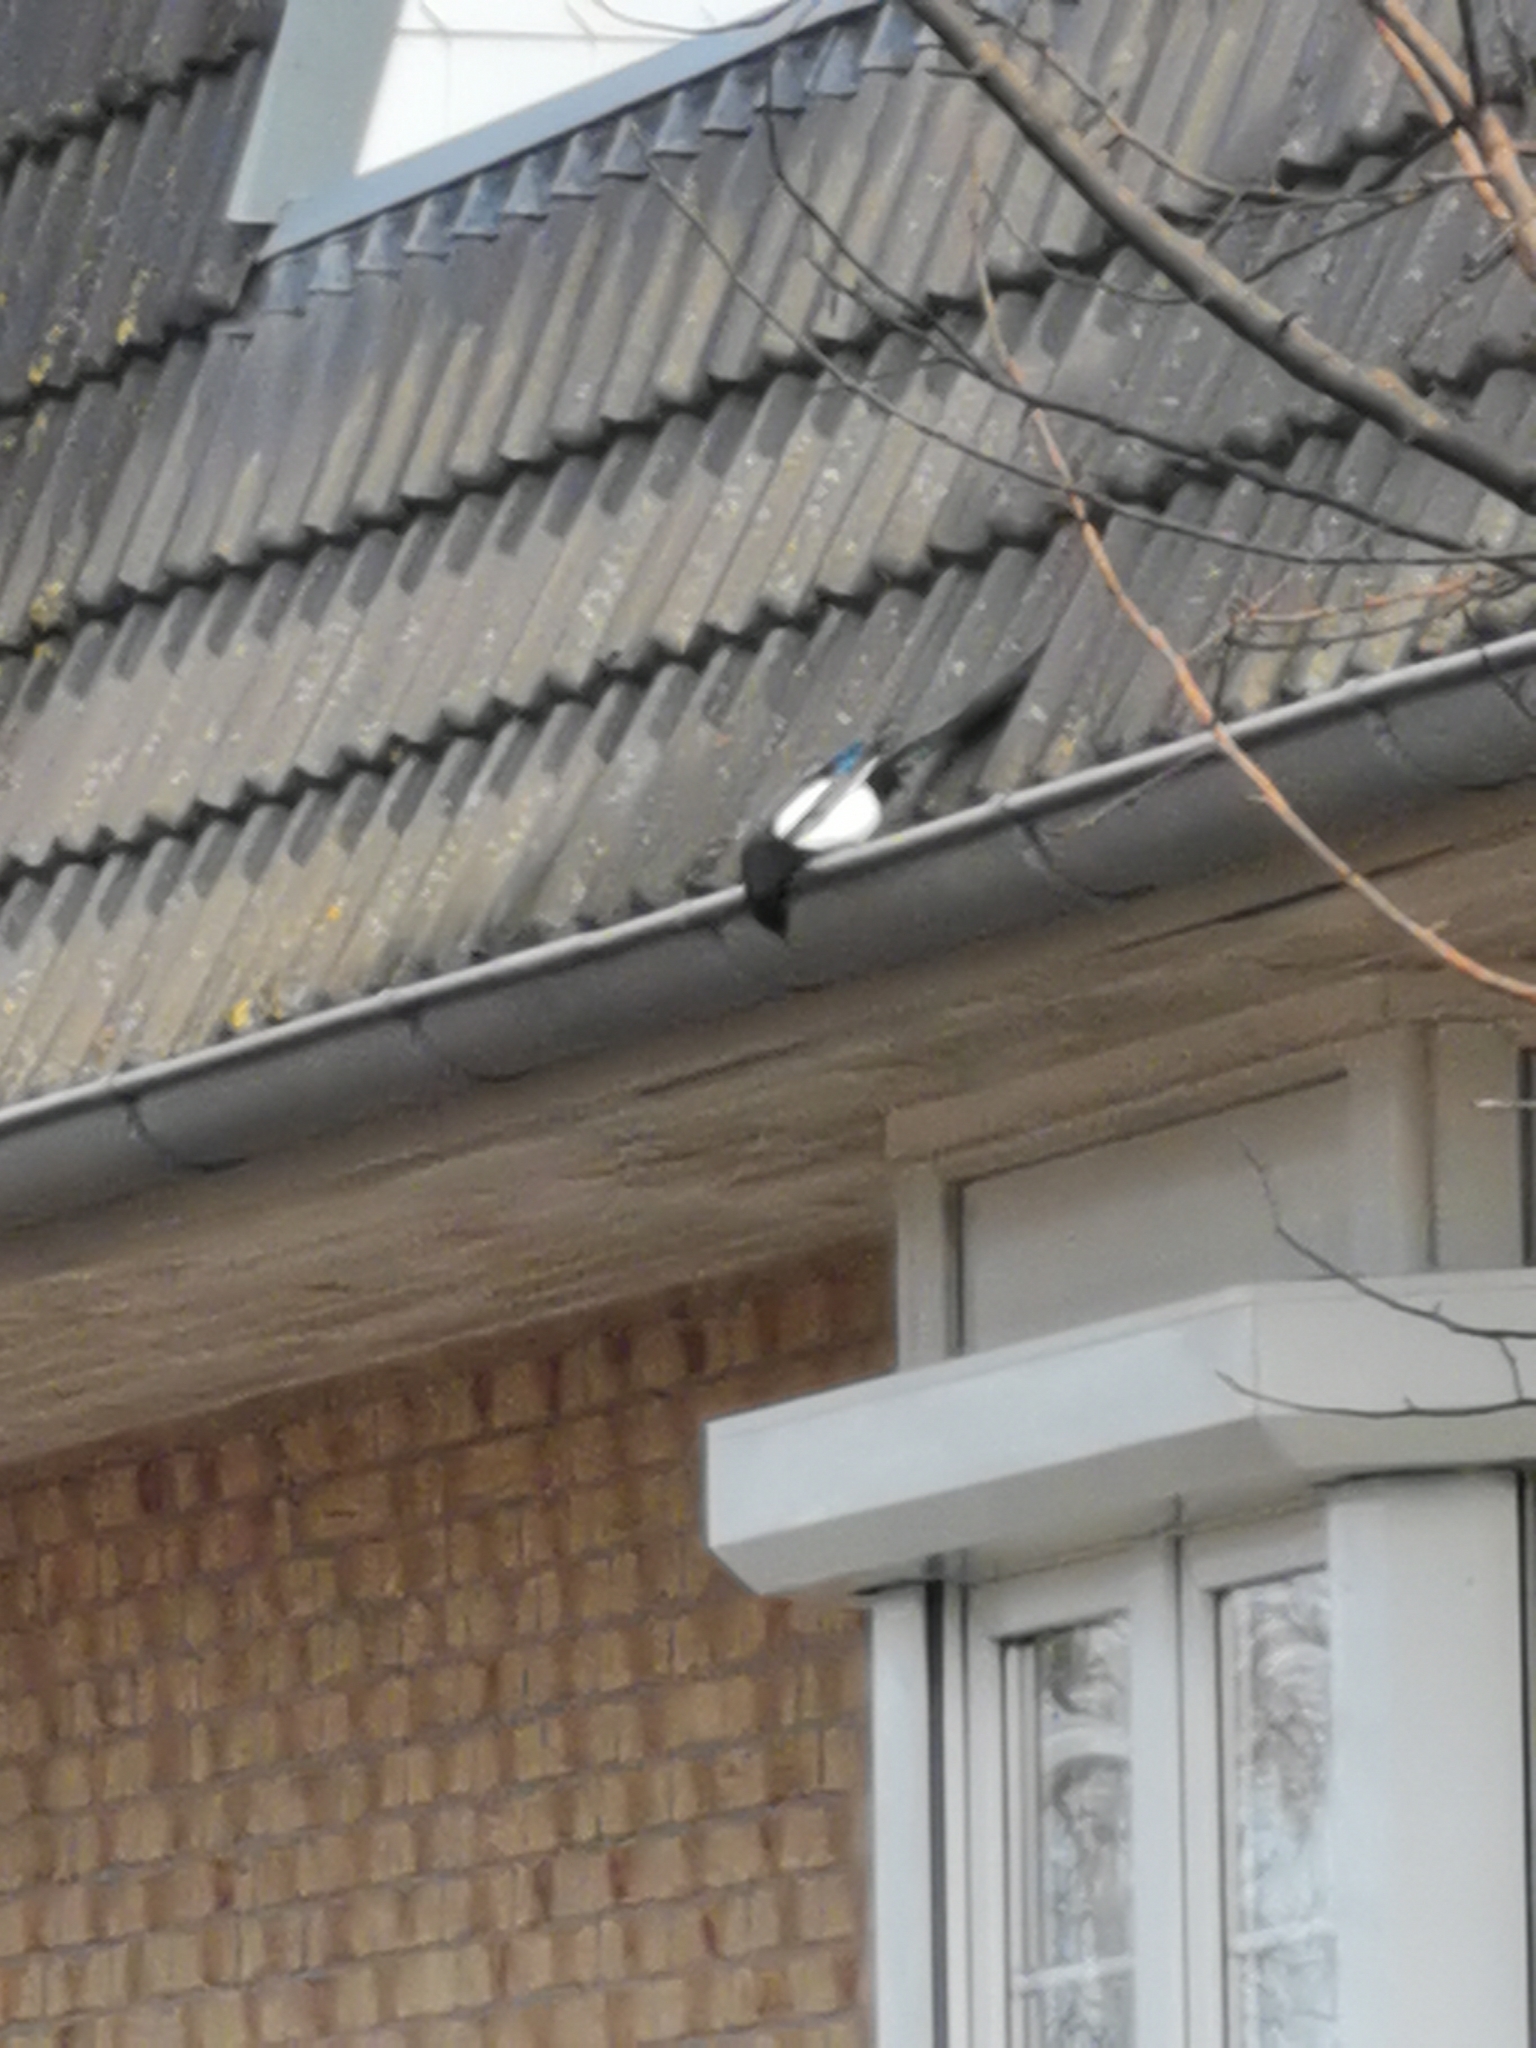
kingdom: Animalia
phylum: Chordata
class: Aves
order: Passeriformes
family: Corvidae
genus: Pica
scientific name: Pica pica
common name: Eurasian magpie
